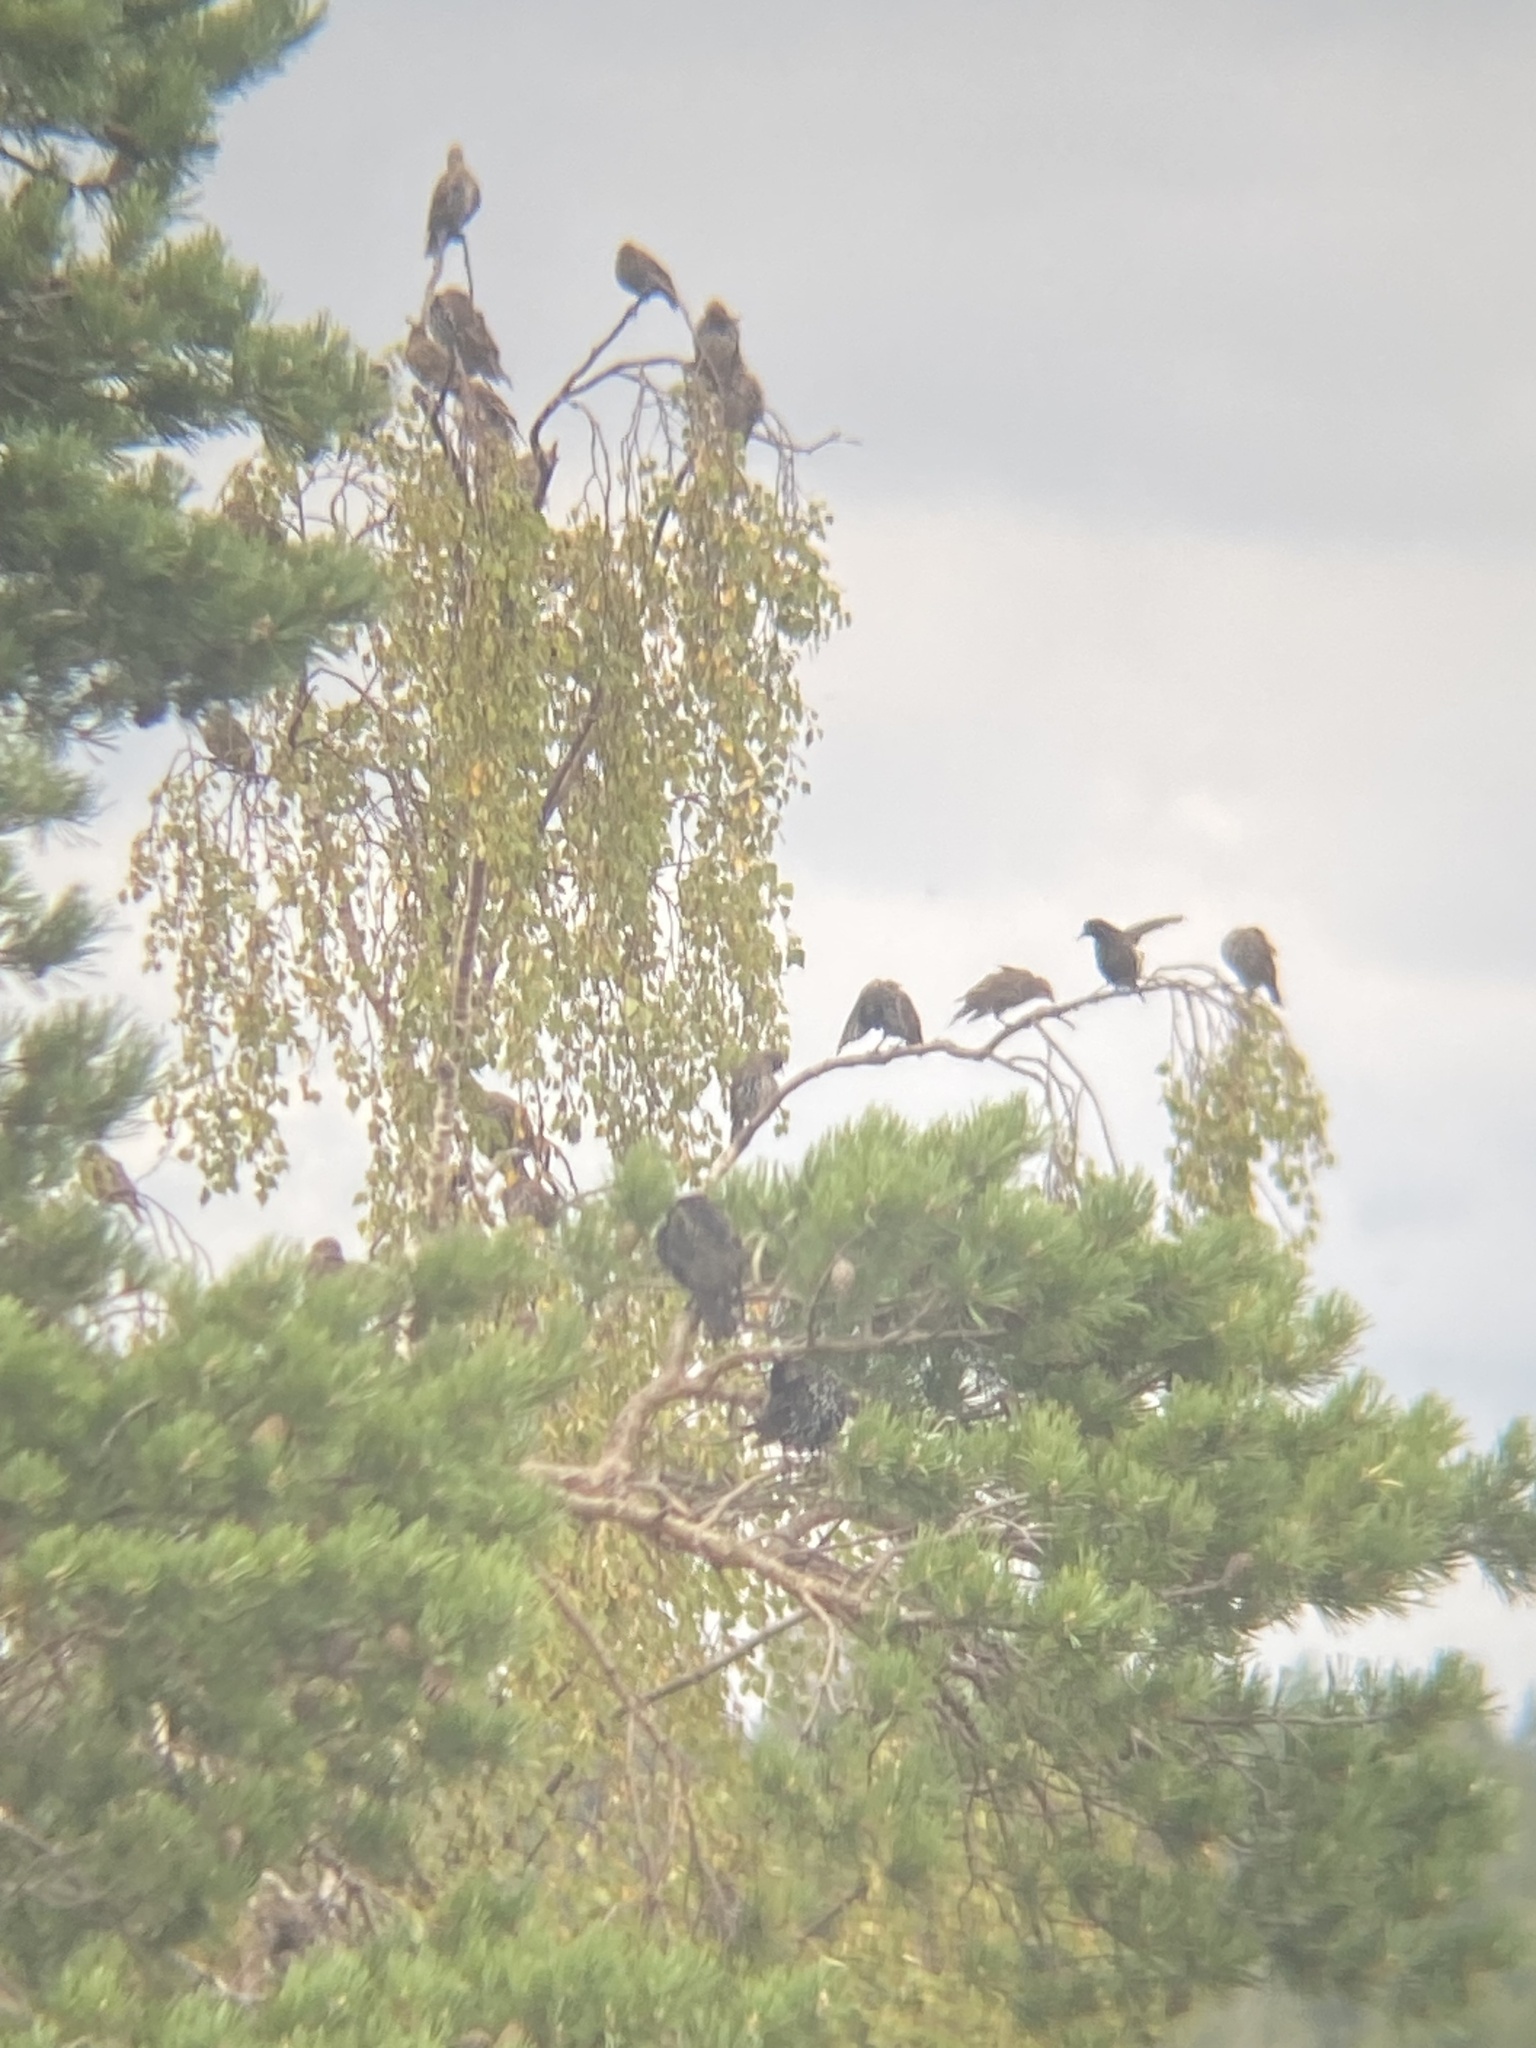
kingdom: Animalia
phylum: Chordata
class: Aves
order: Passeriformes
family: Sturnidae
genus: Sturnus
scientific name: Sturnus vulgaris
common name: Common starling
